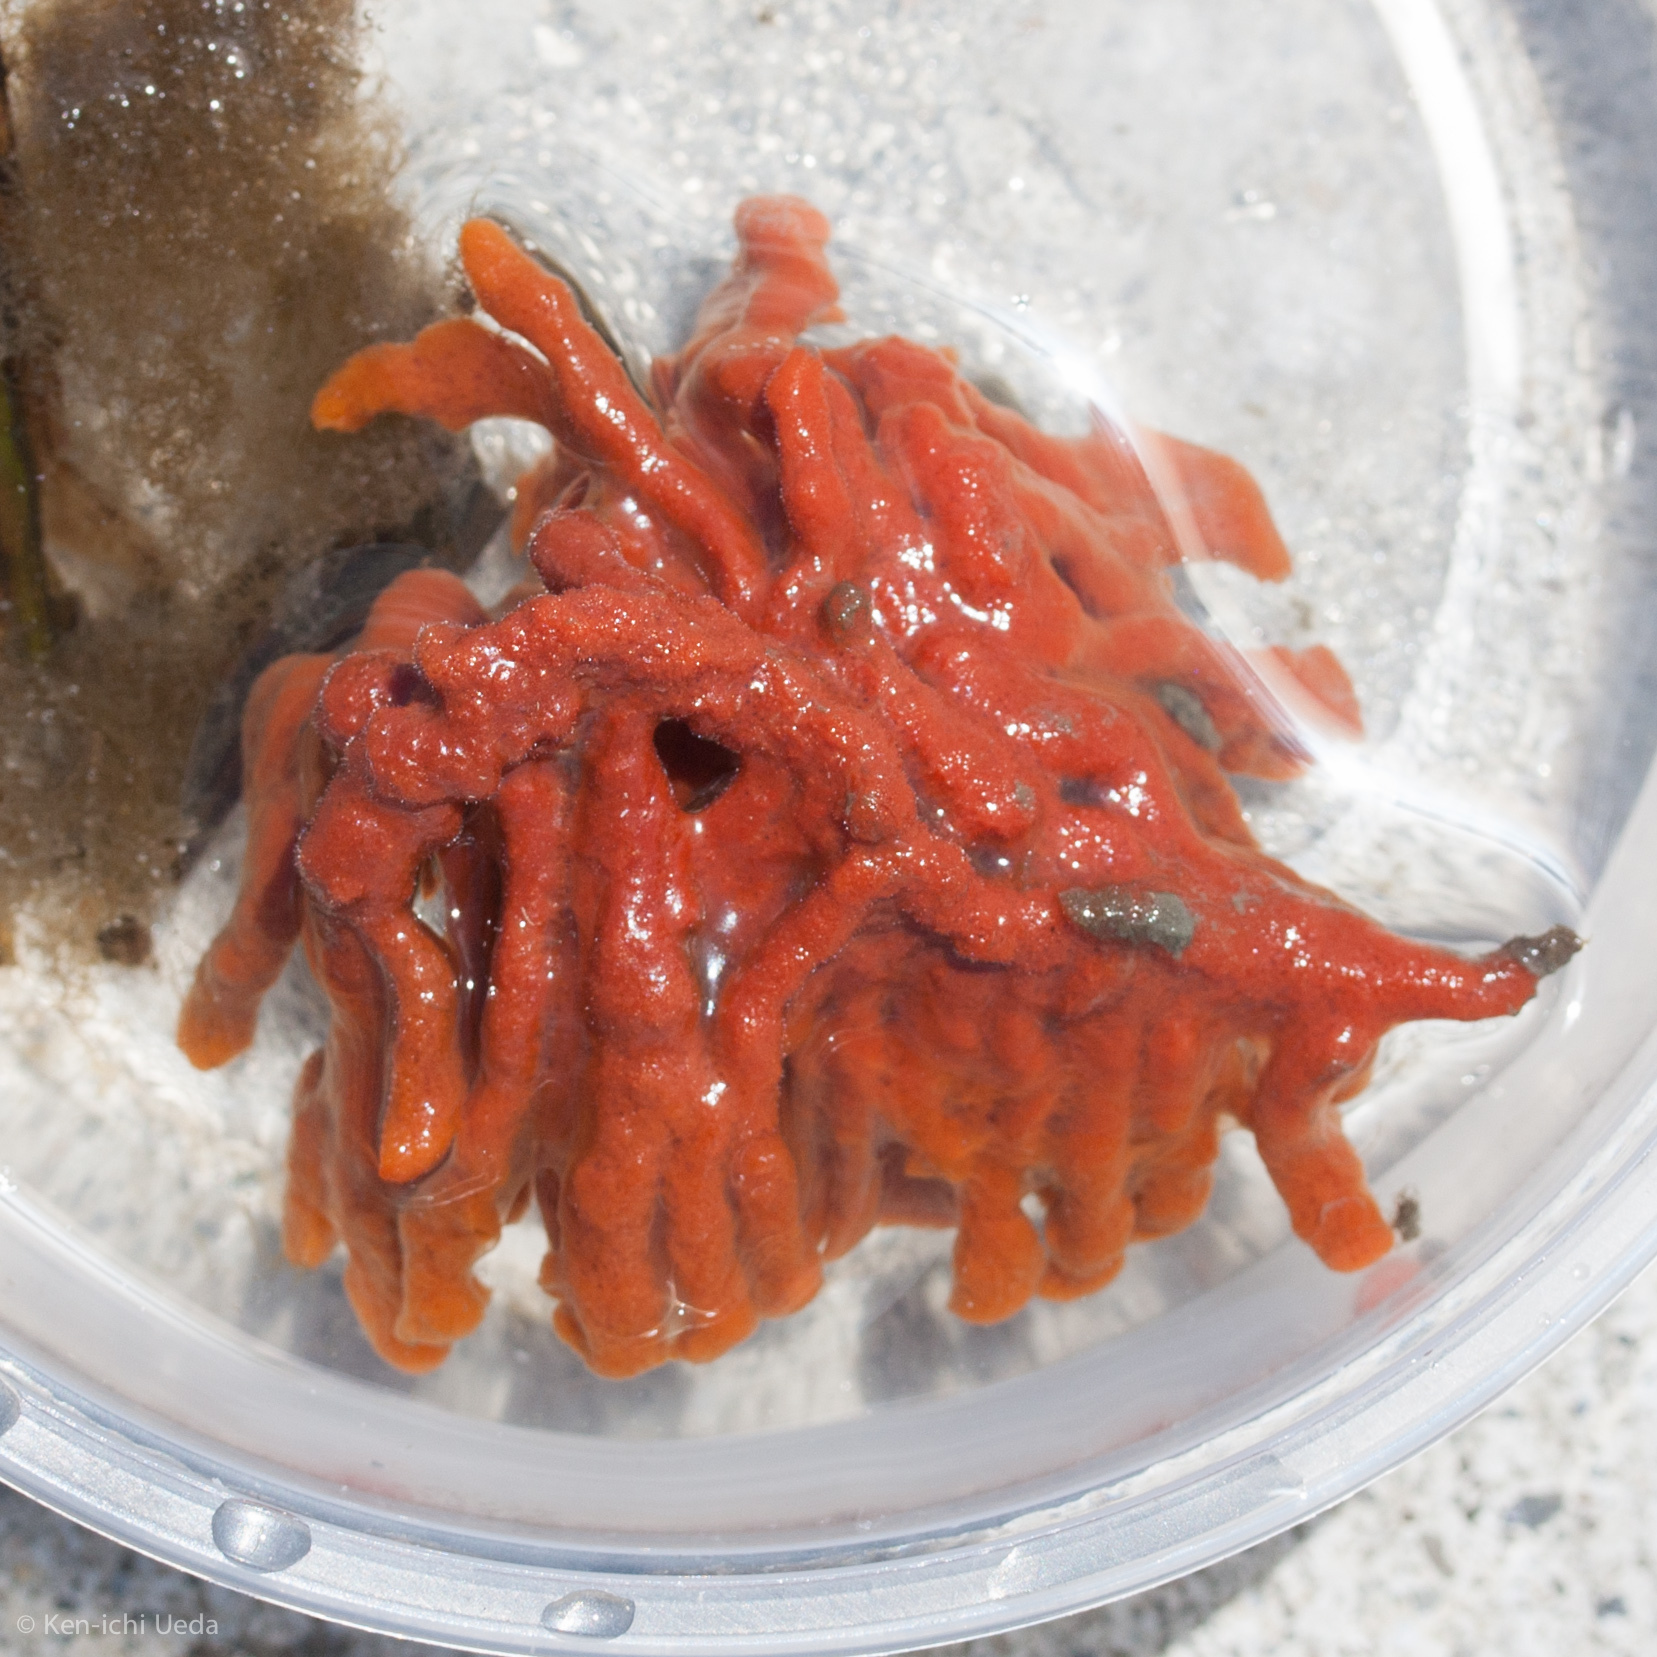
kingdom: Animalia
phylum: Porifera
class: Demospongiae
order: Poecilosclerida
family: Microcionidae
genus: Clathria
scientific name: Clathria prolifera
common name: Red beard sponge
